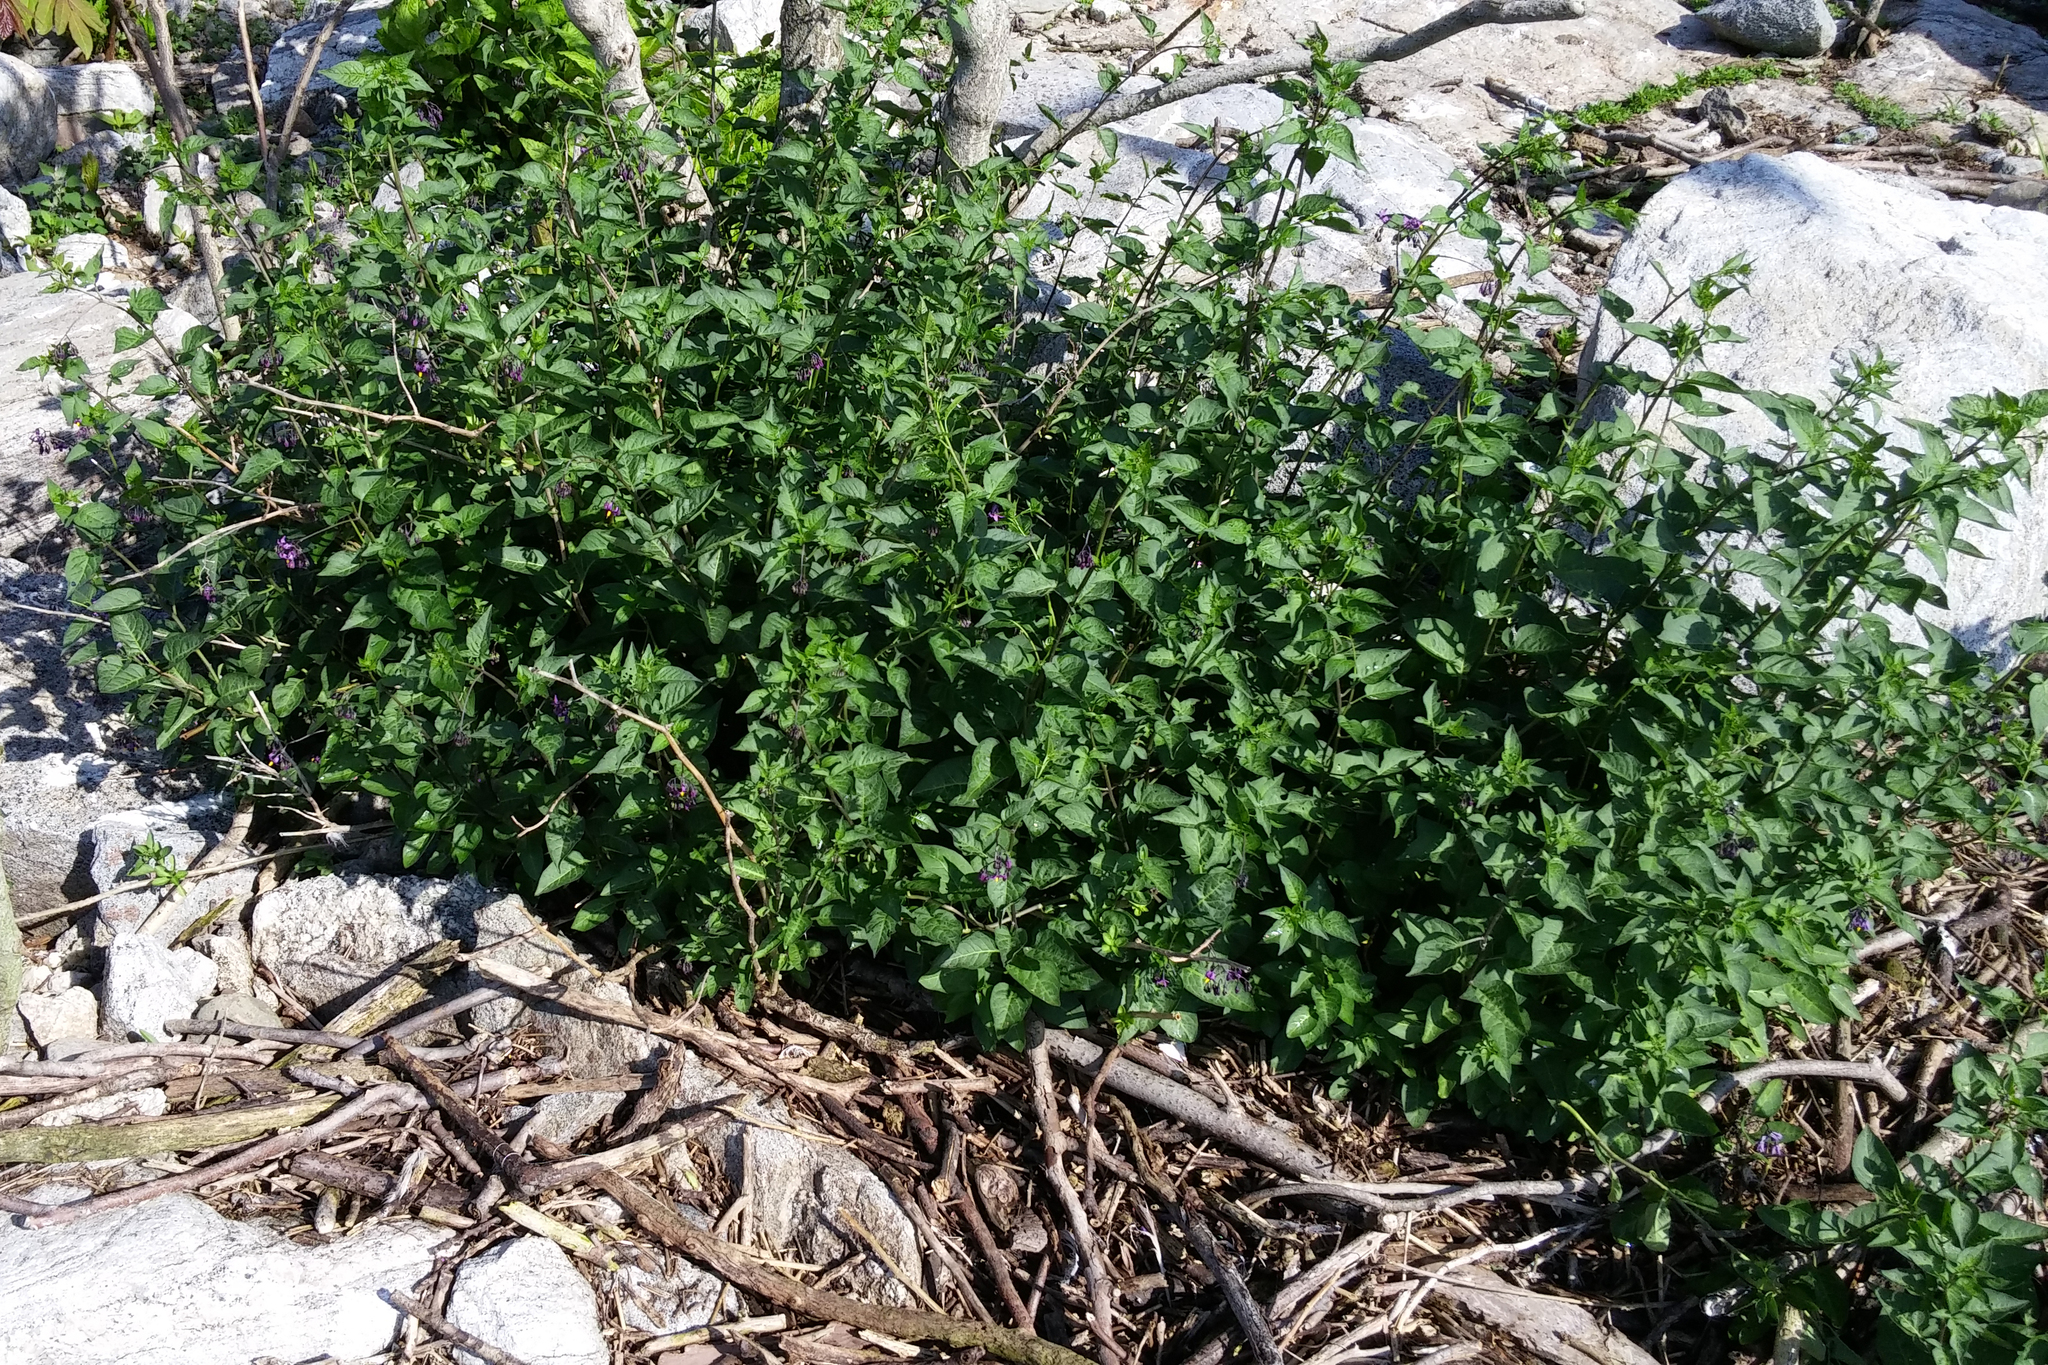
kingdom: Plantae
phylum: Tracheophyta
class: Magnoliopsida
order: Solanales
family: Solanaceae
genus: Solanum
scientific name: Solanum dulcamara
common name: Climbing nightshade
